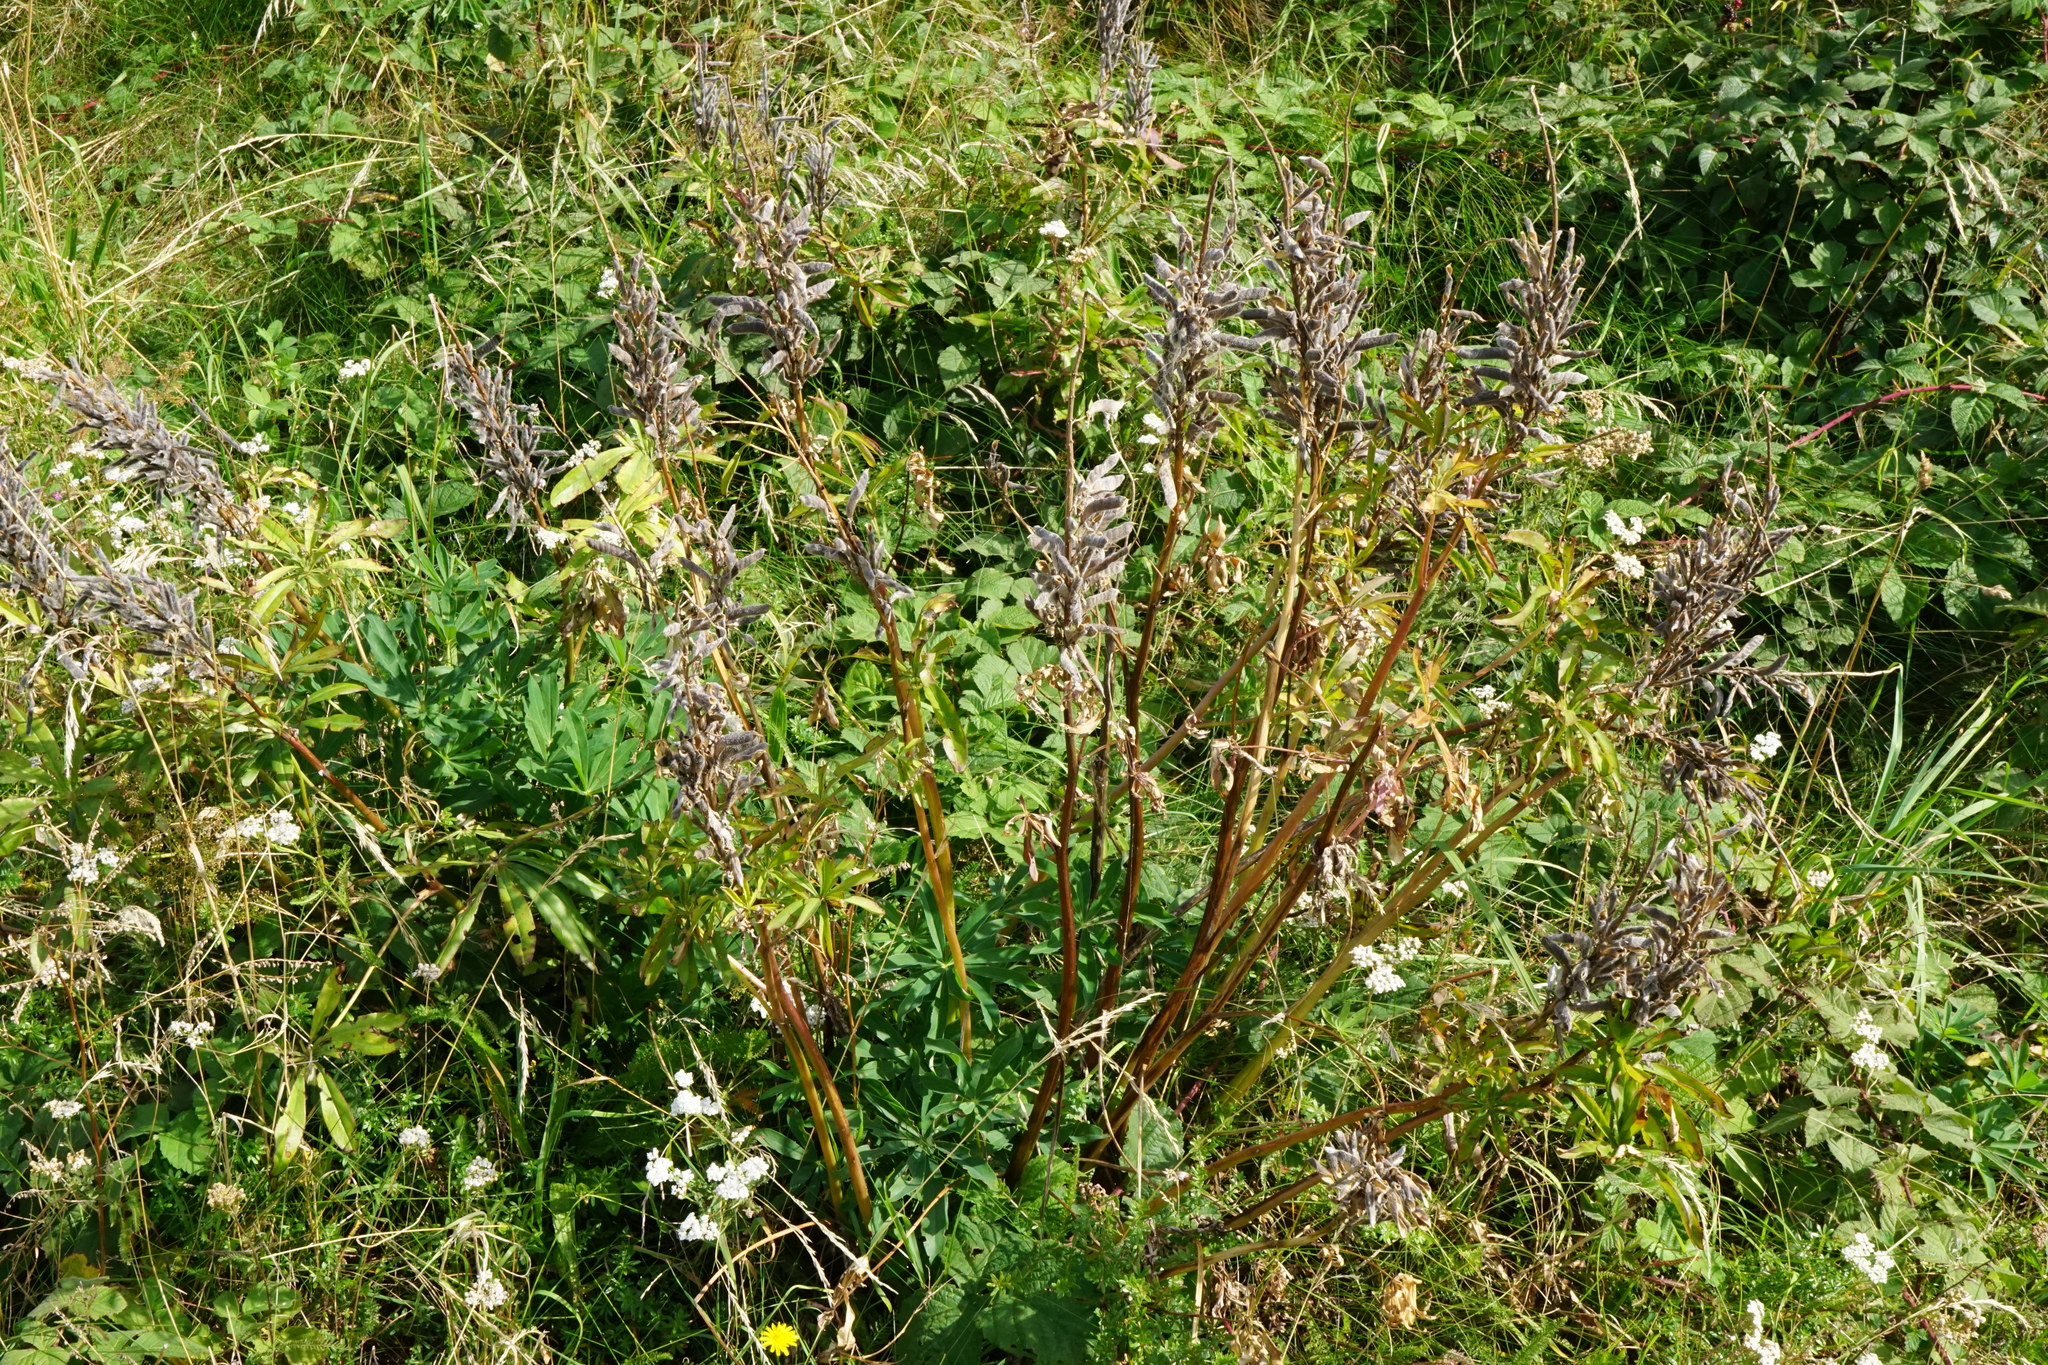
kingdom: Plantae
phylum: Tracheophyta
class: Magnoliopsida
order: Fabales
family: Fabaceae
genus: Lupinus
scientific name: Lupinus polyphyllus
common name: Garden lupin
